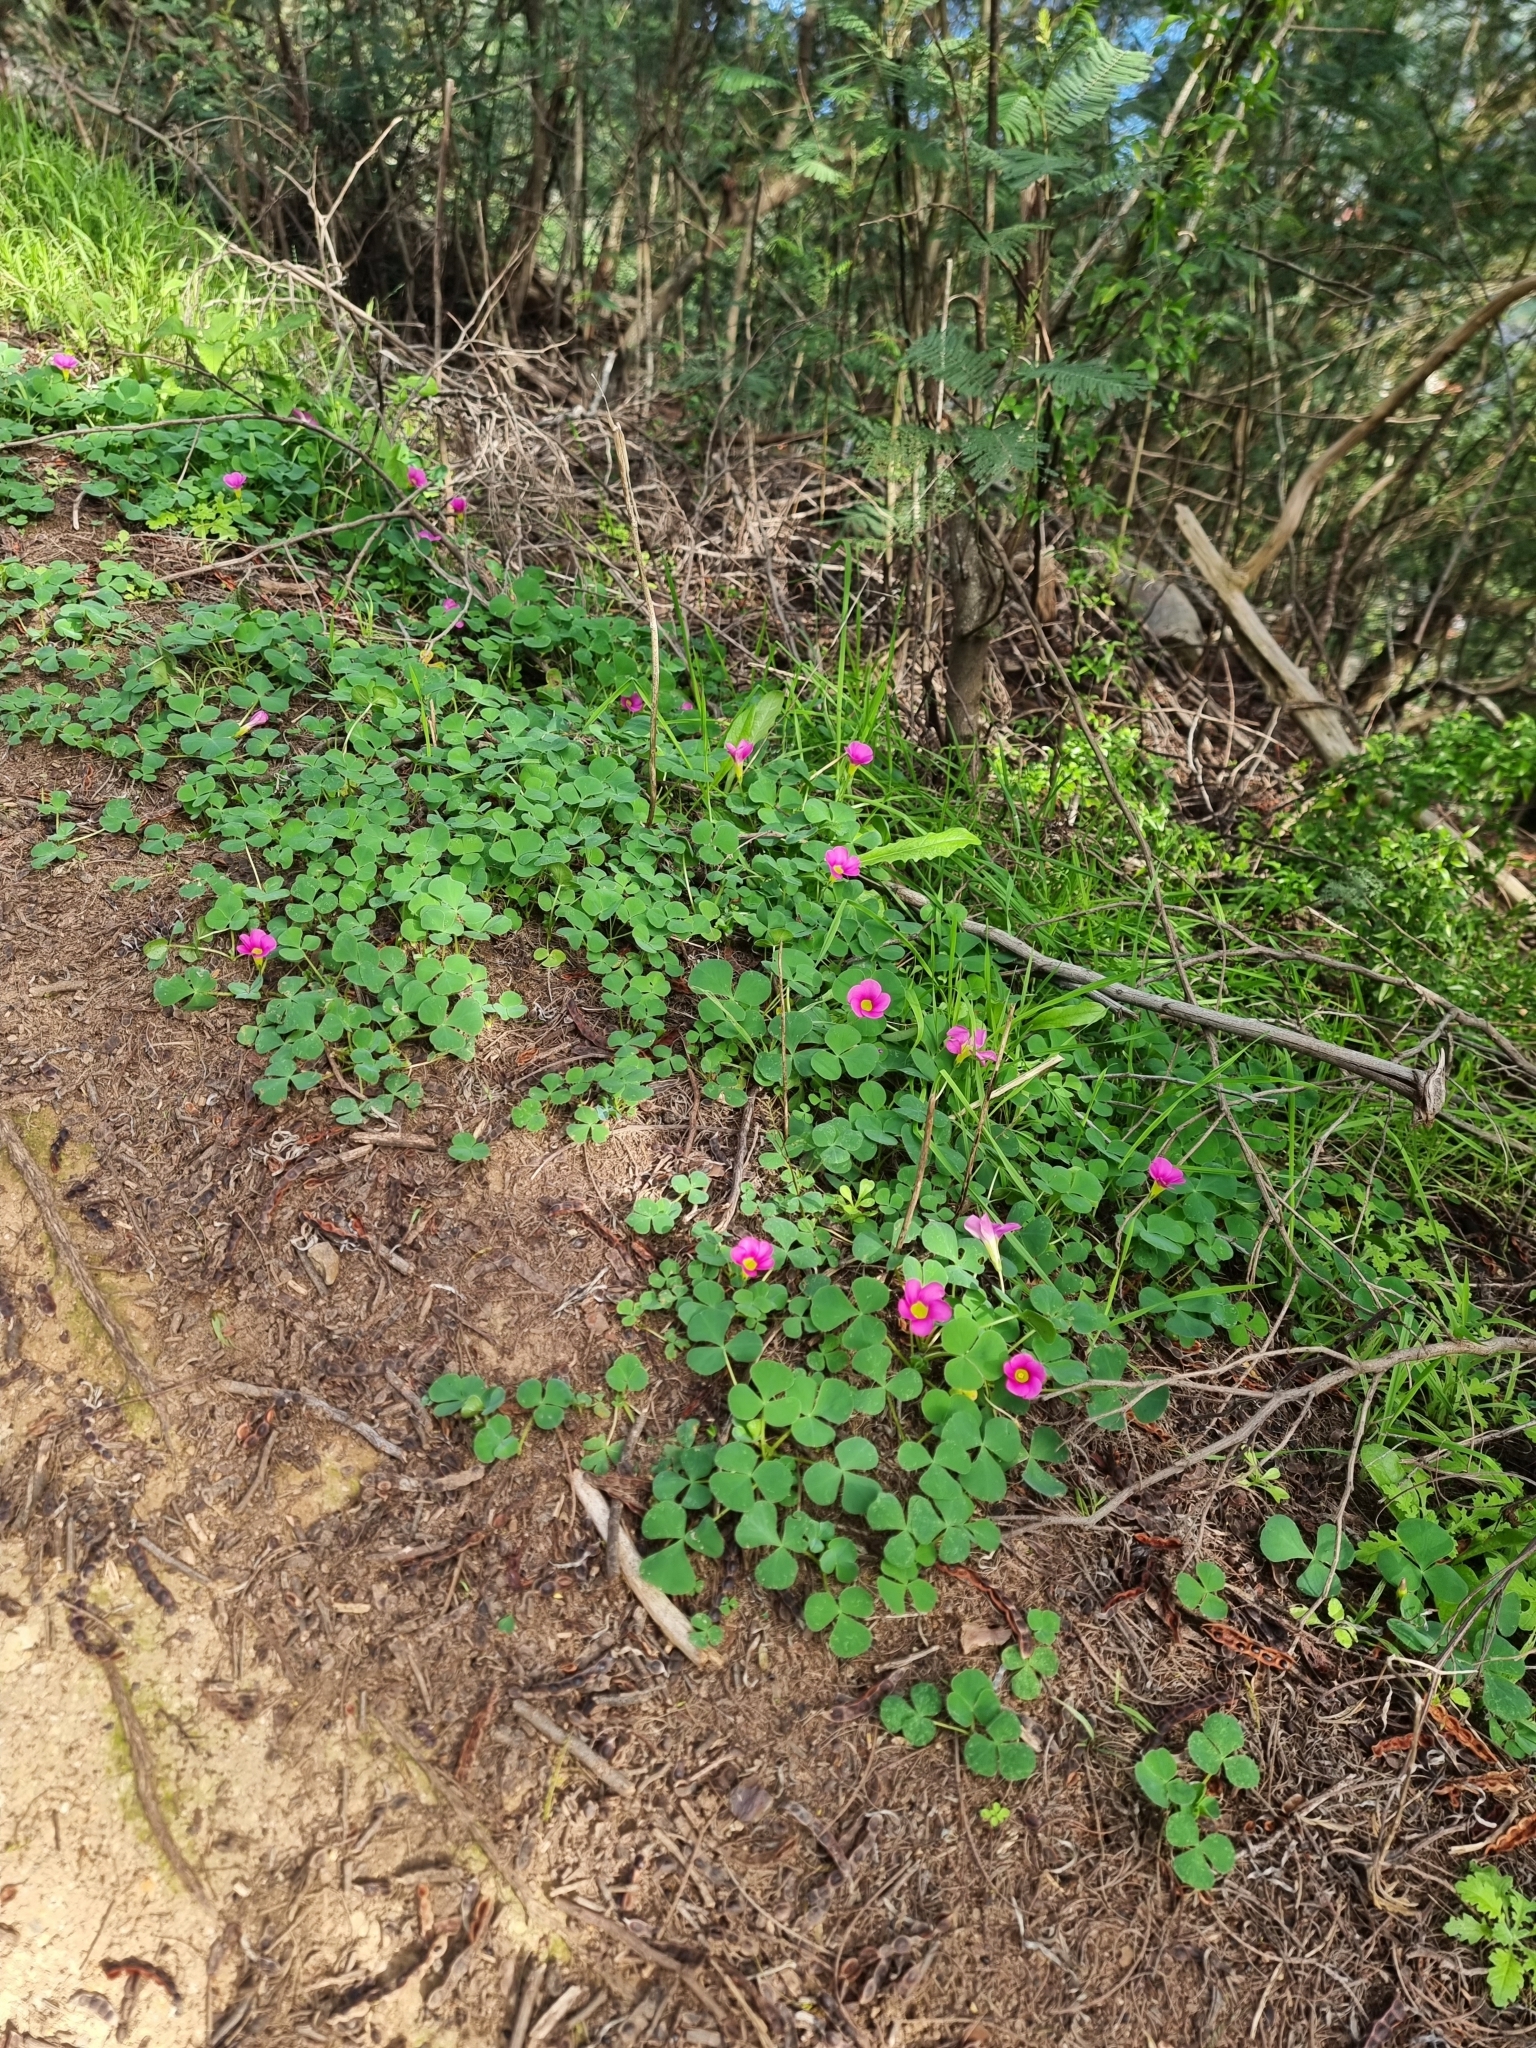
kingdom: Plantae
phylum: Tracheophyta
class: Magnoliopsida
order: Oxalidales
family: Oxalidaceae
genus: Oxalis
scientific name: Oxalis purpurea
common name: Purple woodsorrel
